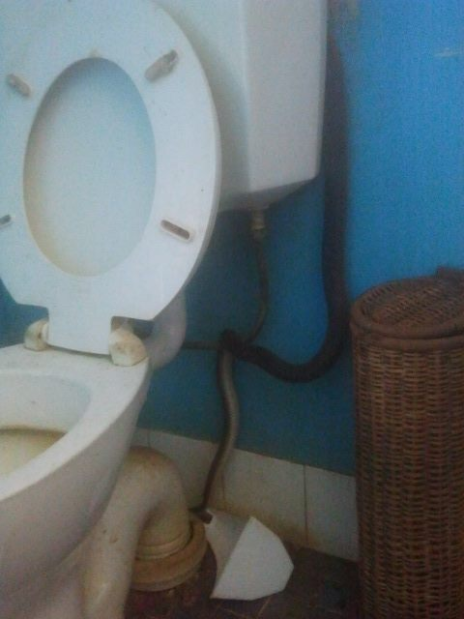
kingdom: Animalia
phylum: Chordata
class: Squamata
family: Elapidae
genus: Pseudechis
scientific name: Pseudechis australis
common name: King brown snake
